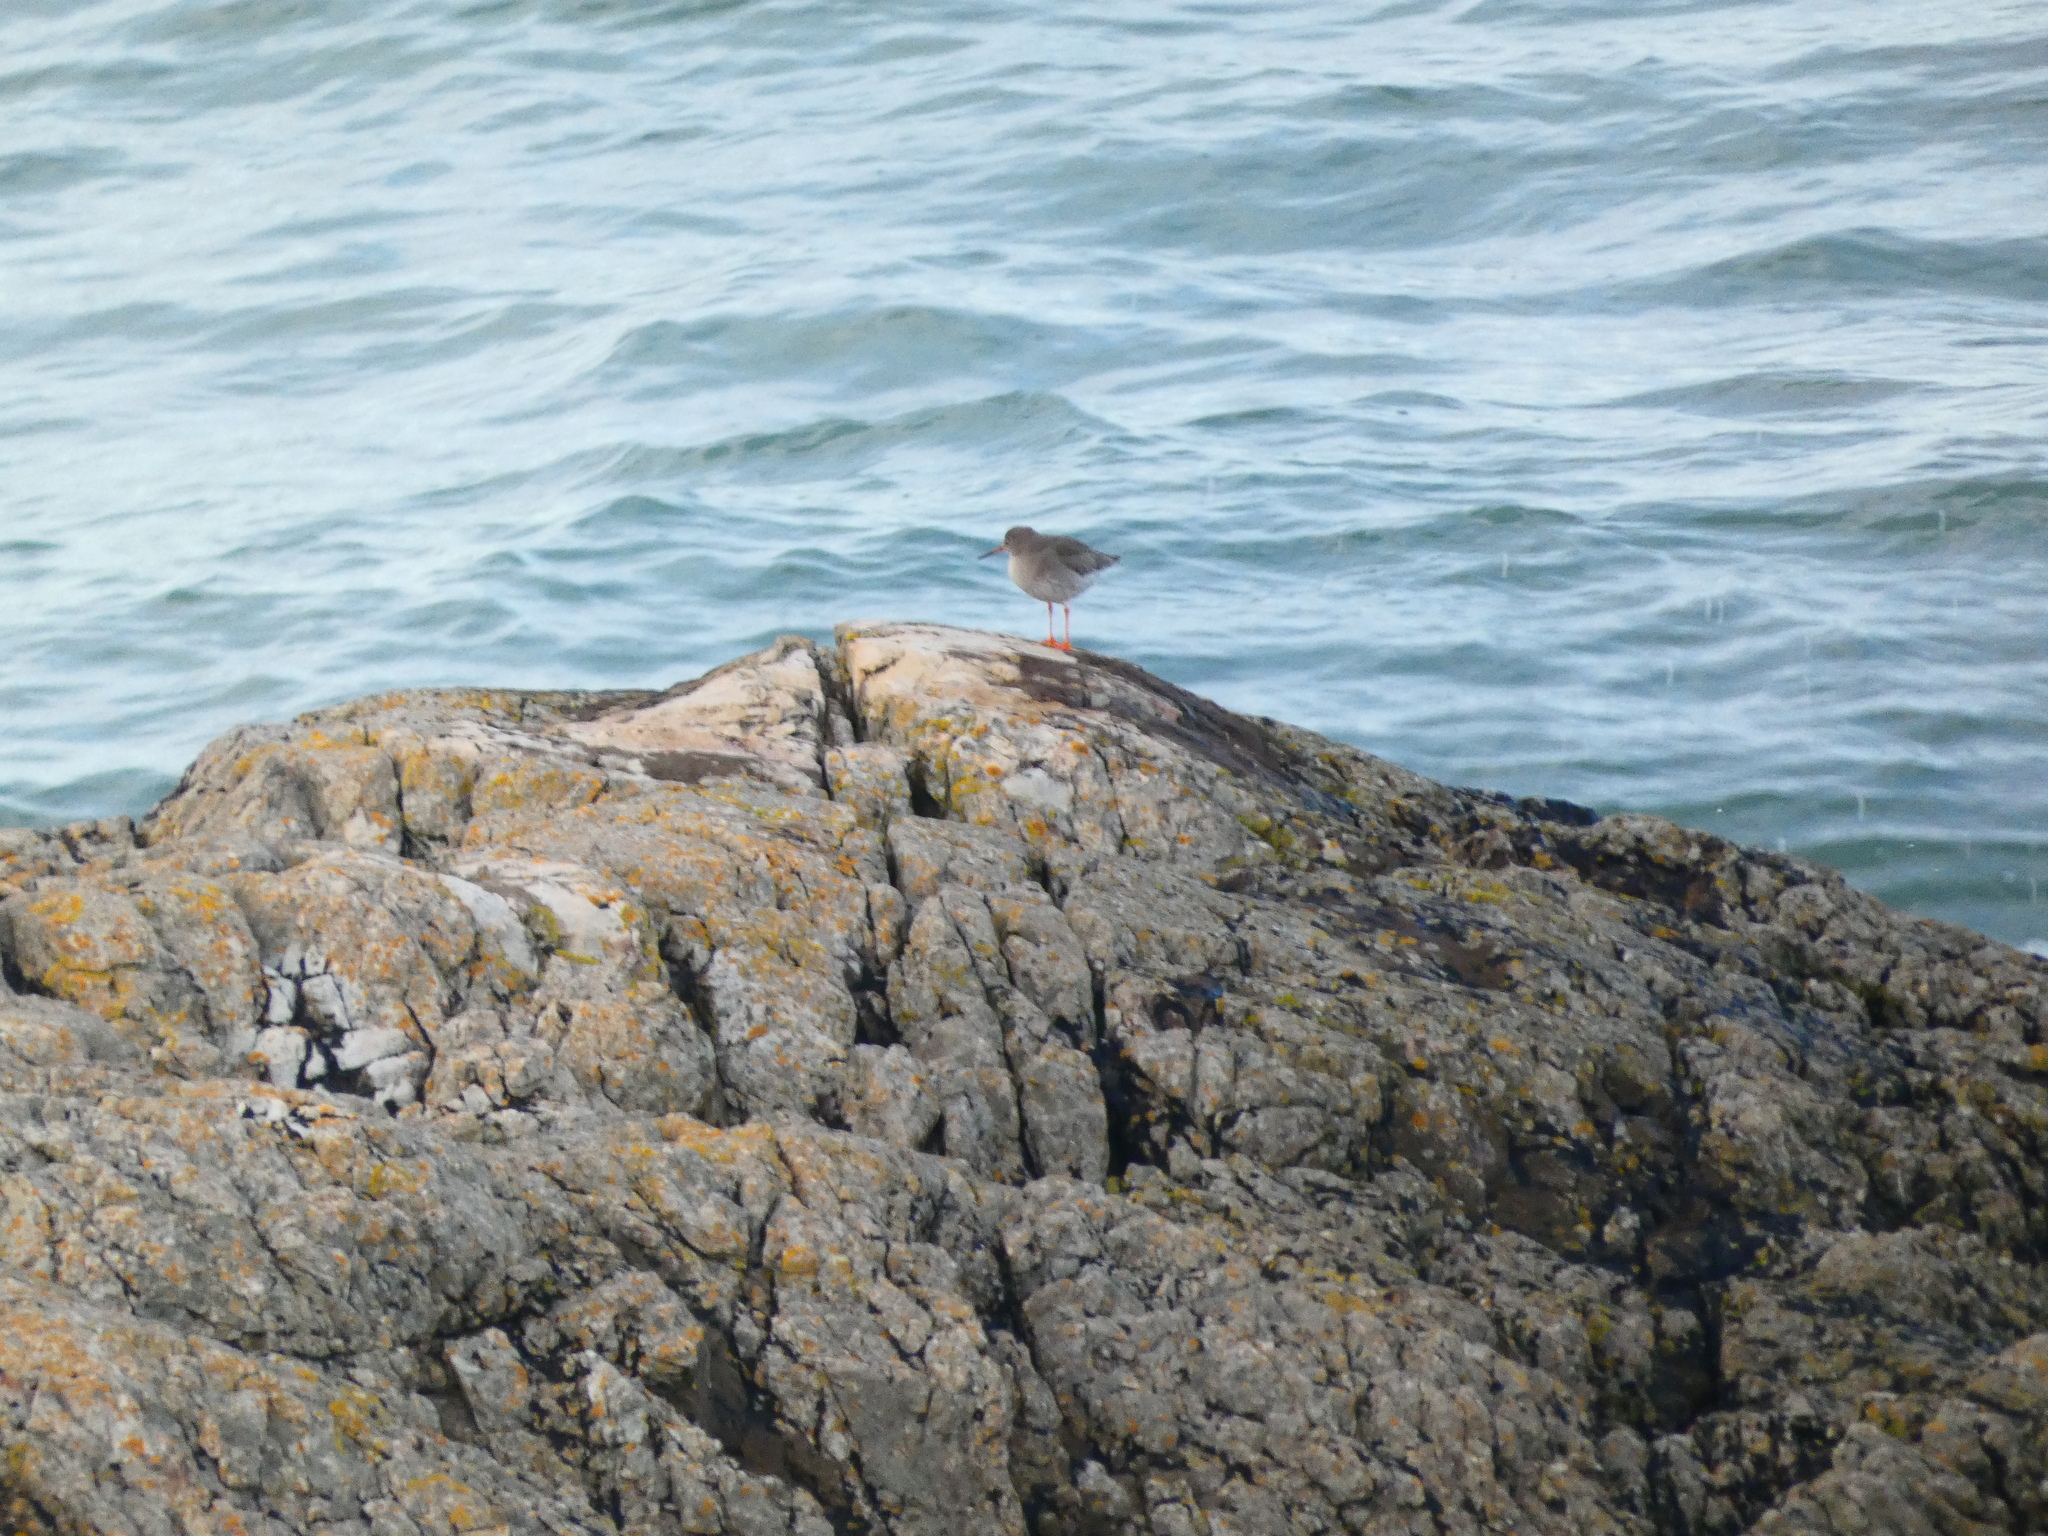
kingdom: Animalia
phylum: Chordata
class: Aves
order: Charadriiformes
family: Scolopacidae
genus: Tringa
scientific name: Tringa totanus
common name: Common redshank
